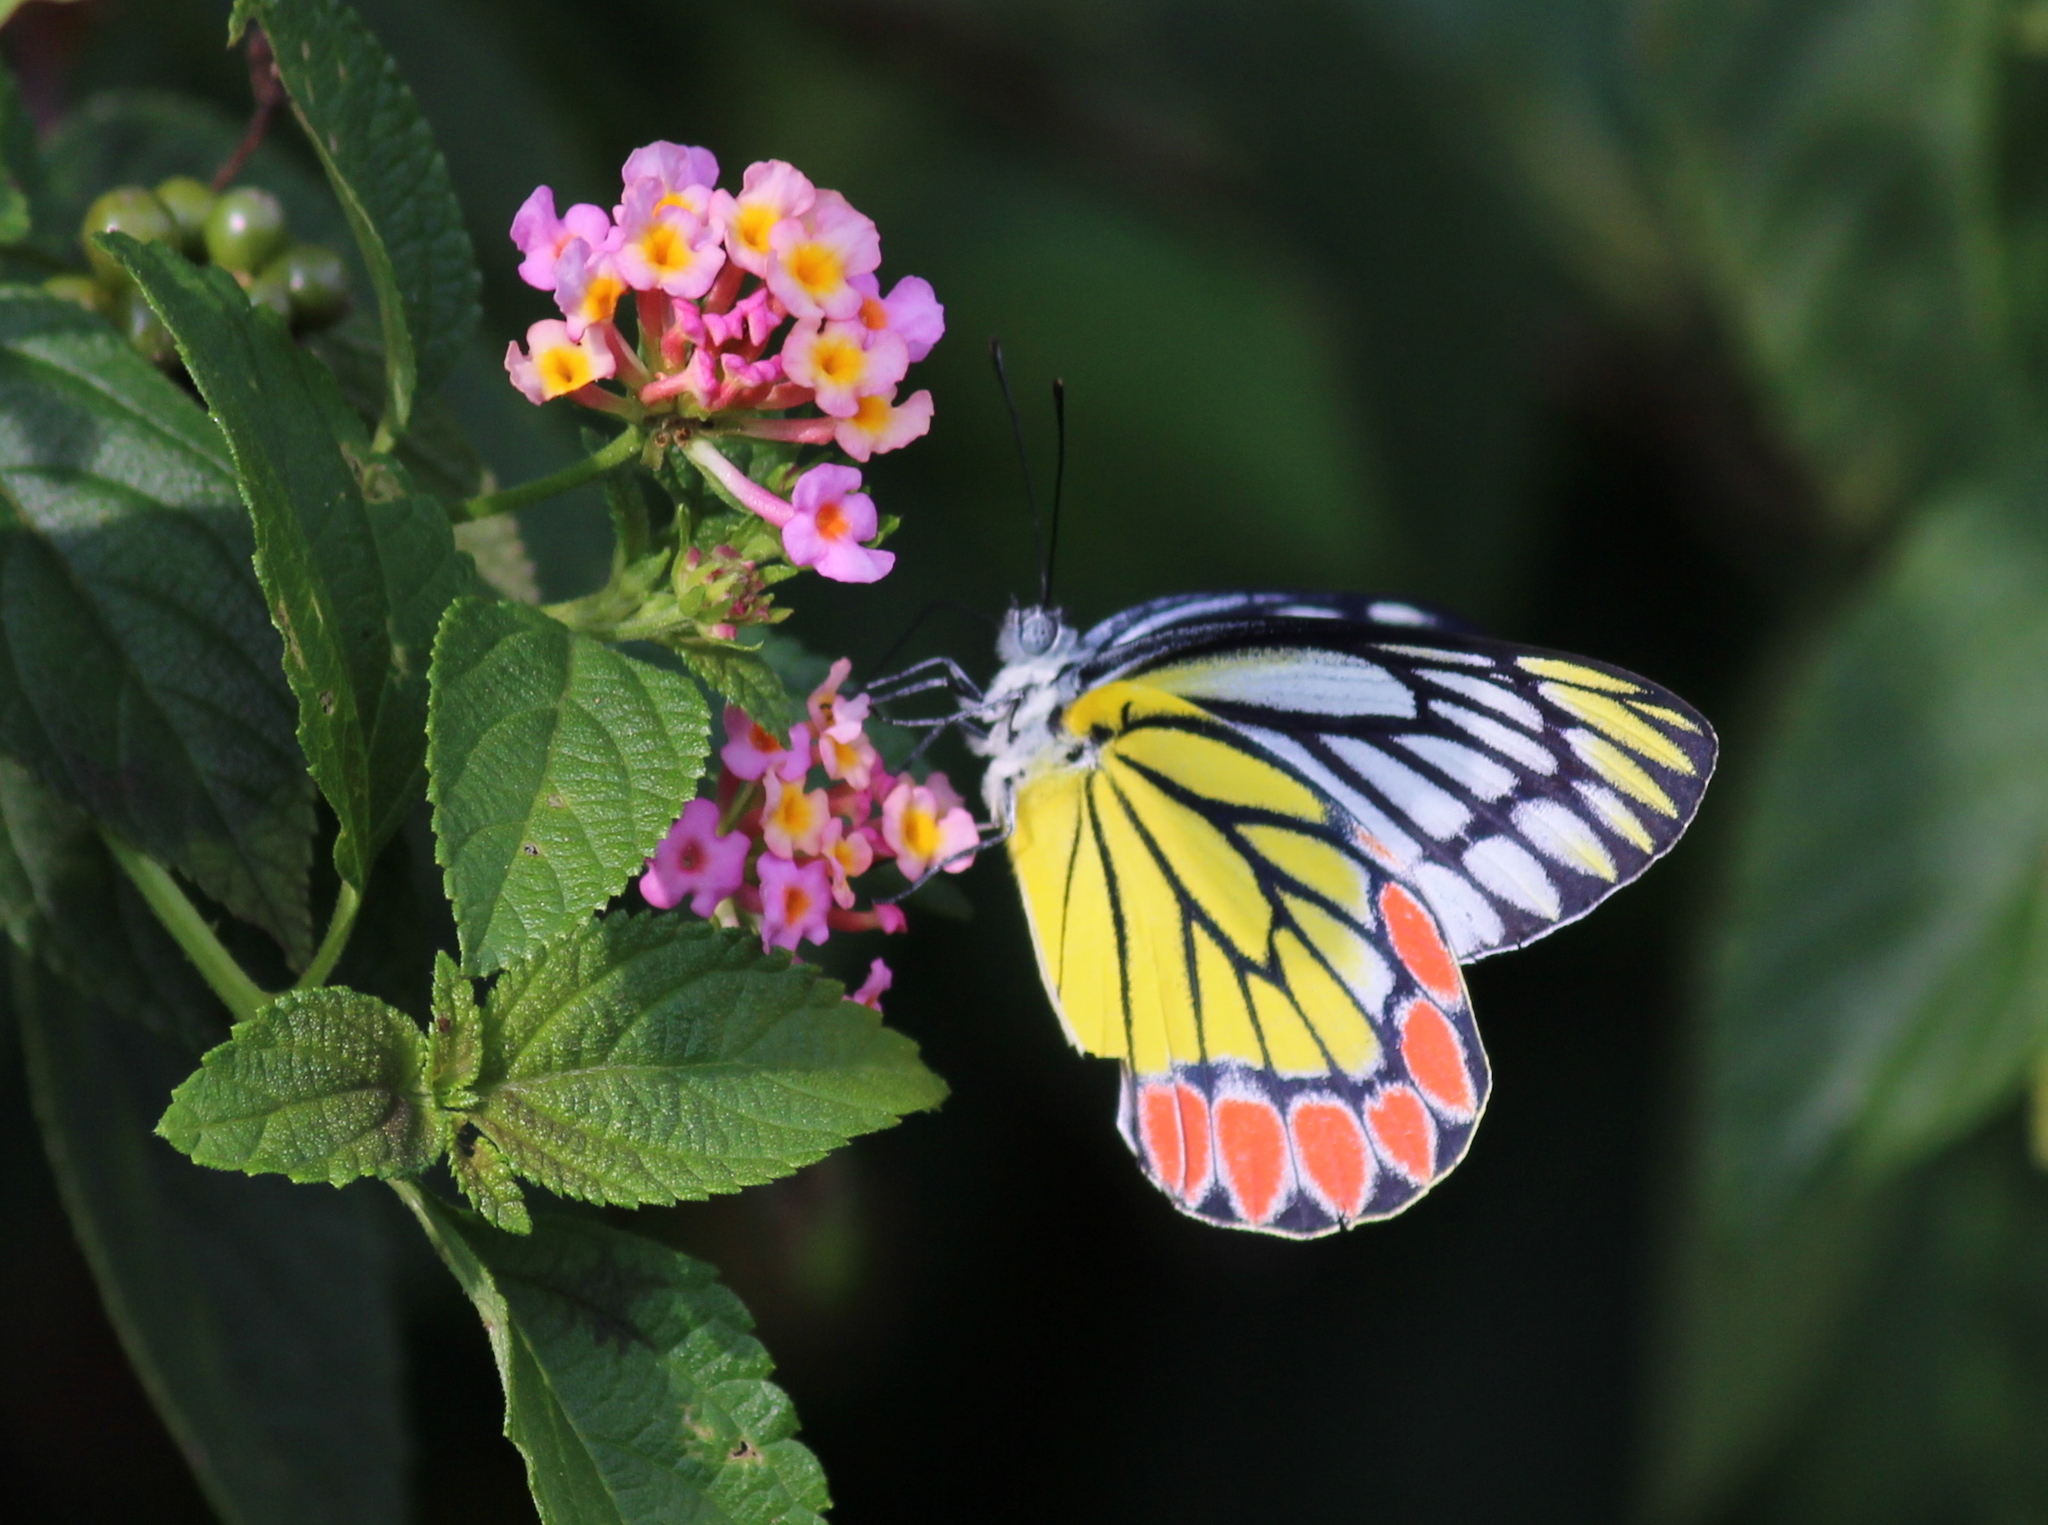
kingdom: Animalia
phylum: Arthropoda
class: Insecta
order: Lepidoptera
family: Pieridae
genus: Delias
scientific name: Delias eucharis
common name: Common jezebel
